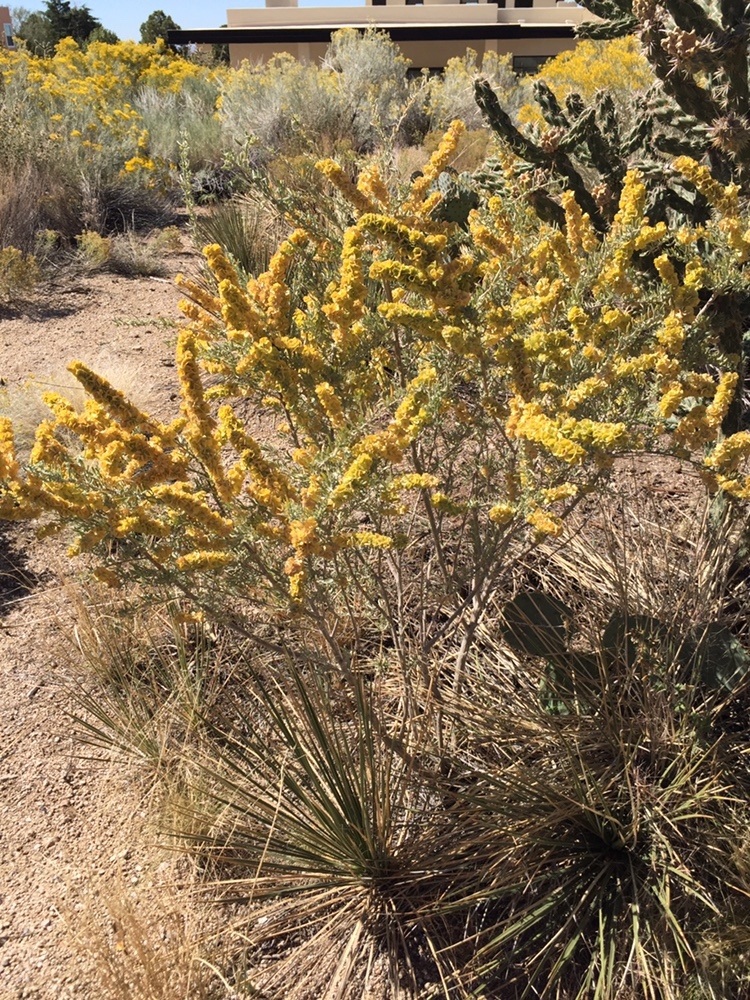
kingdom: Plantae
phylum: Tracheophyta
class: Magnoliopsida
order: Caryophyllales
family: Amaranthaceae
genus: Atriplex
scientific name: Atriplex canescens
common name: Four-wing saltbush
